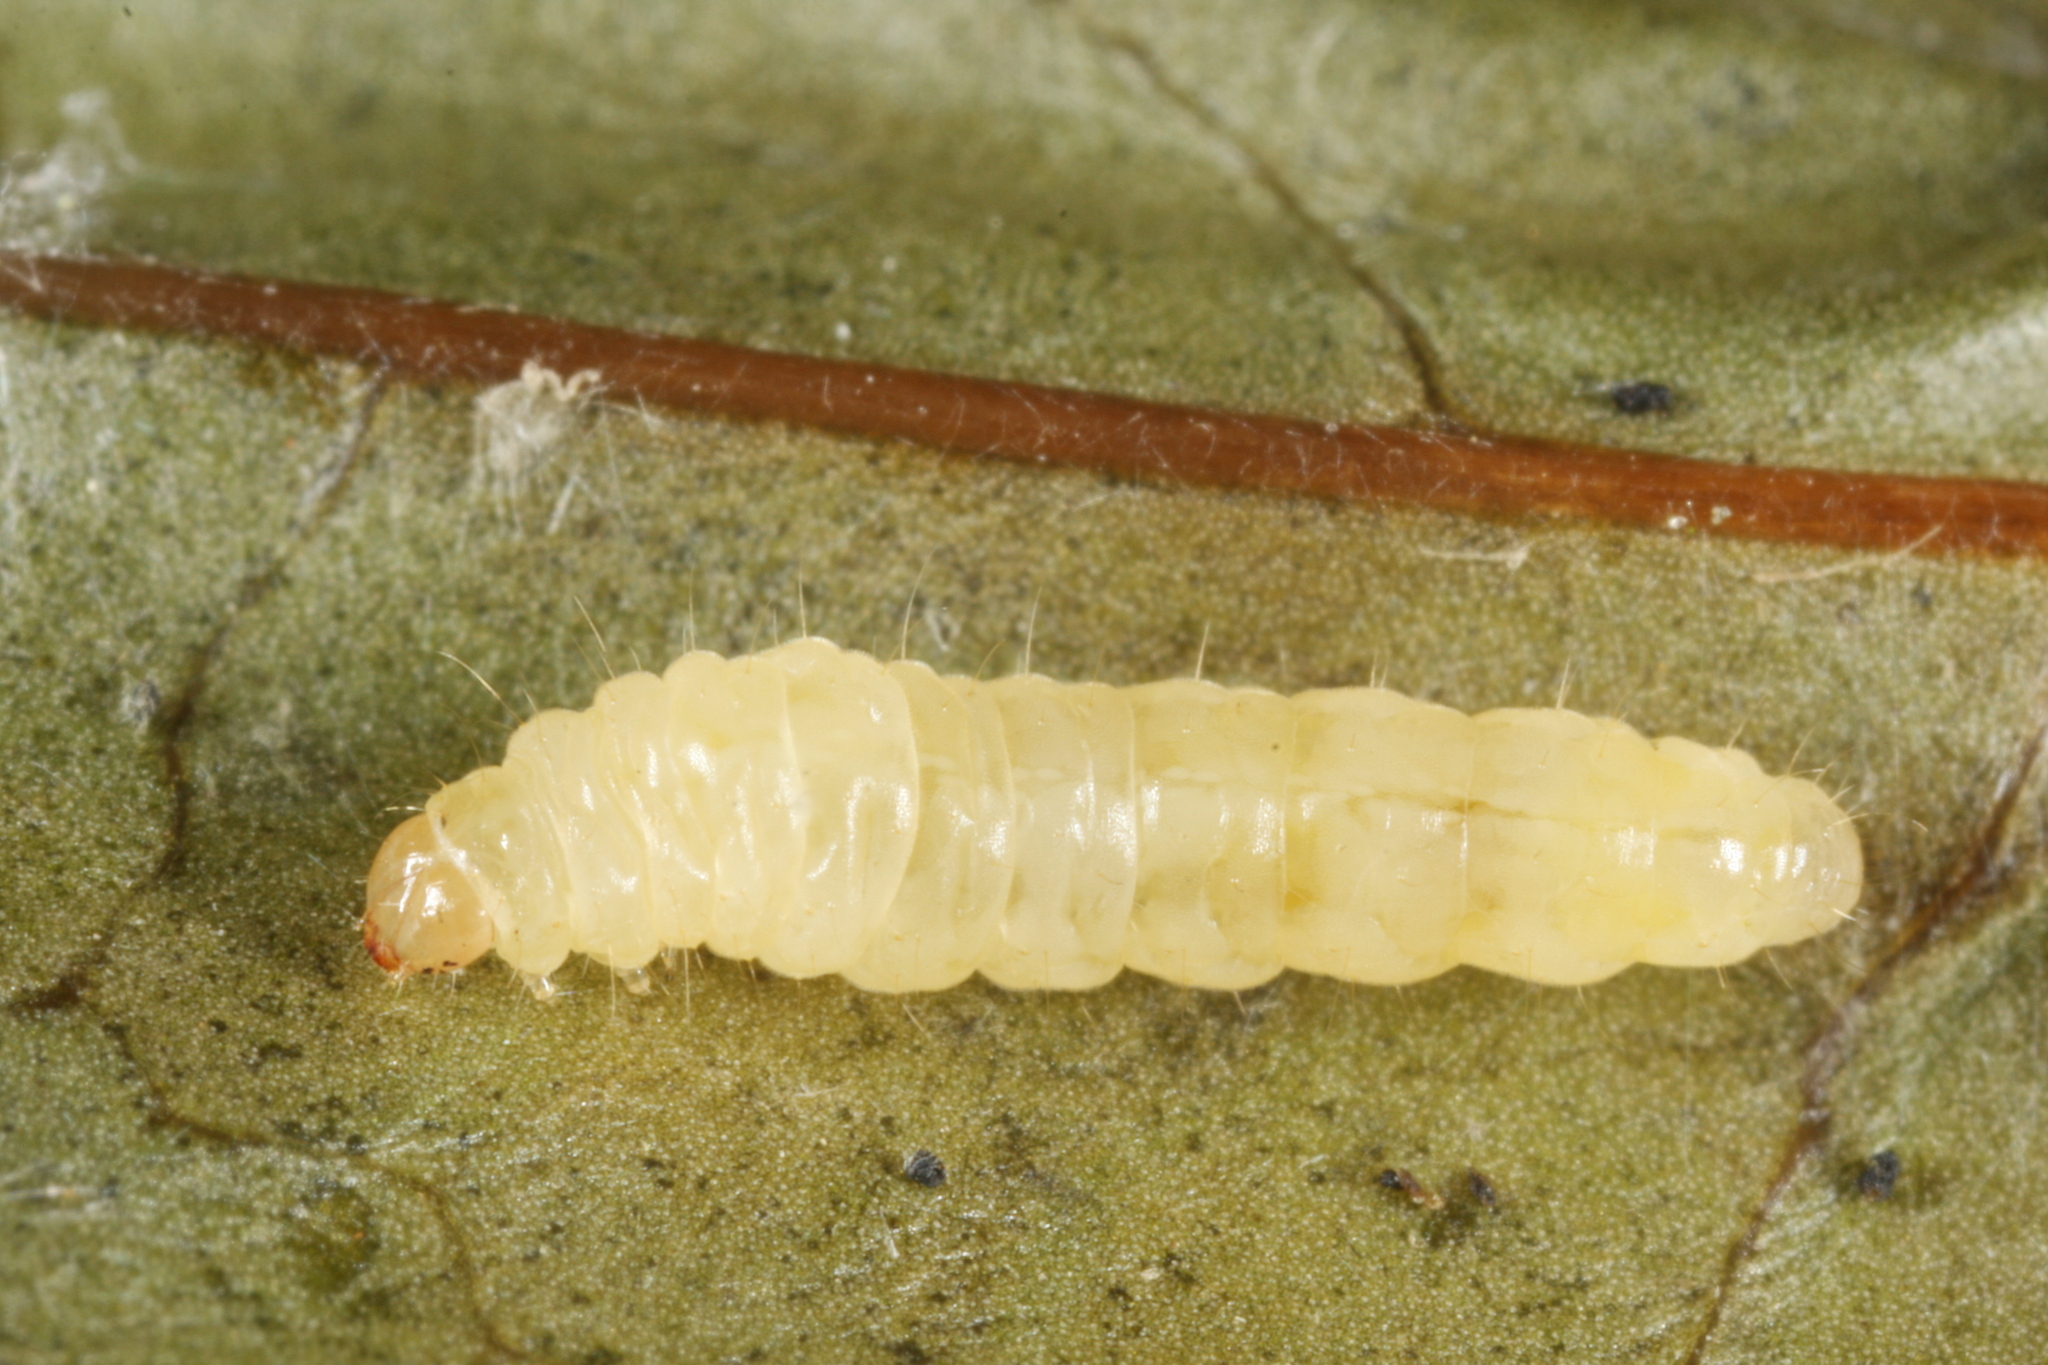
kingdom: Animalia
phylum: Arthropoda
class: Insecta
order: Lepidoptera
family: Gracillariidae
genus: Gracillaria
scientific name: Gracillaria syringella
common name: Common slender
